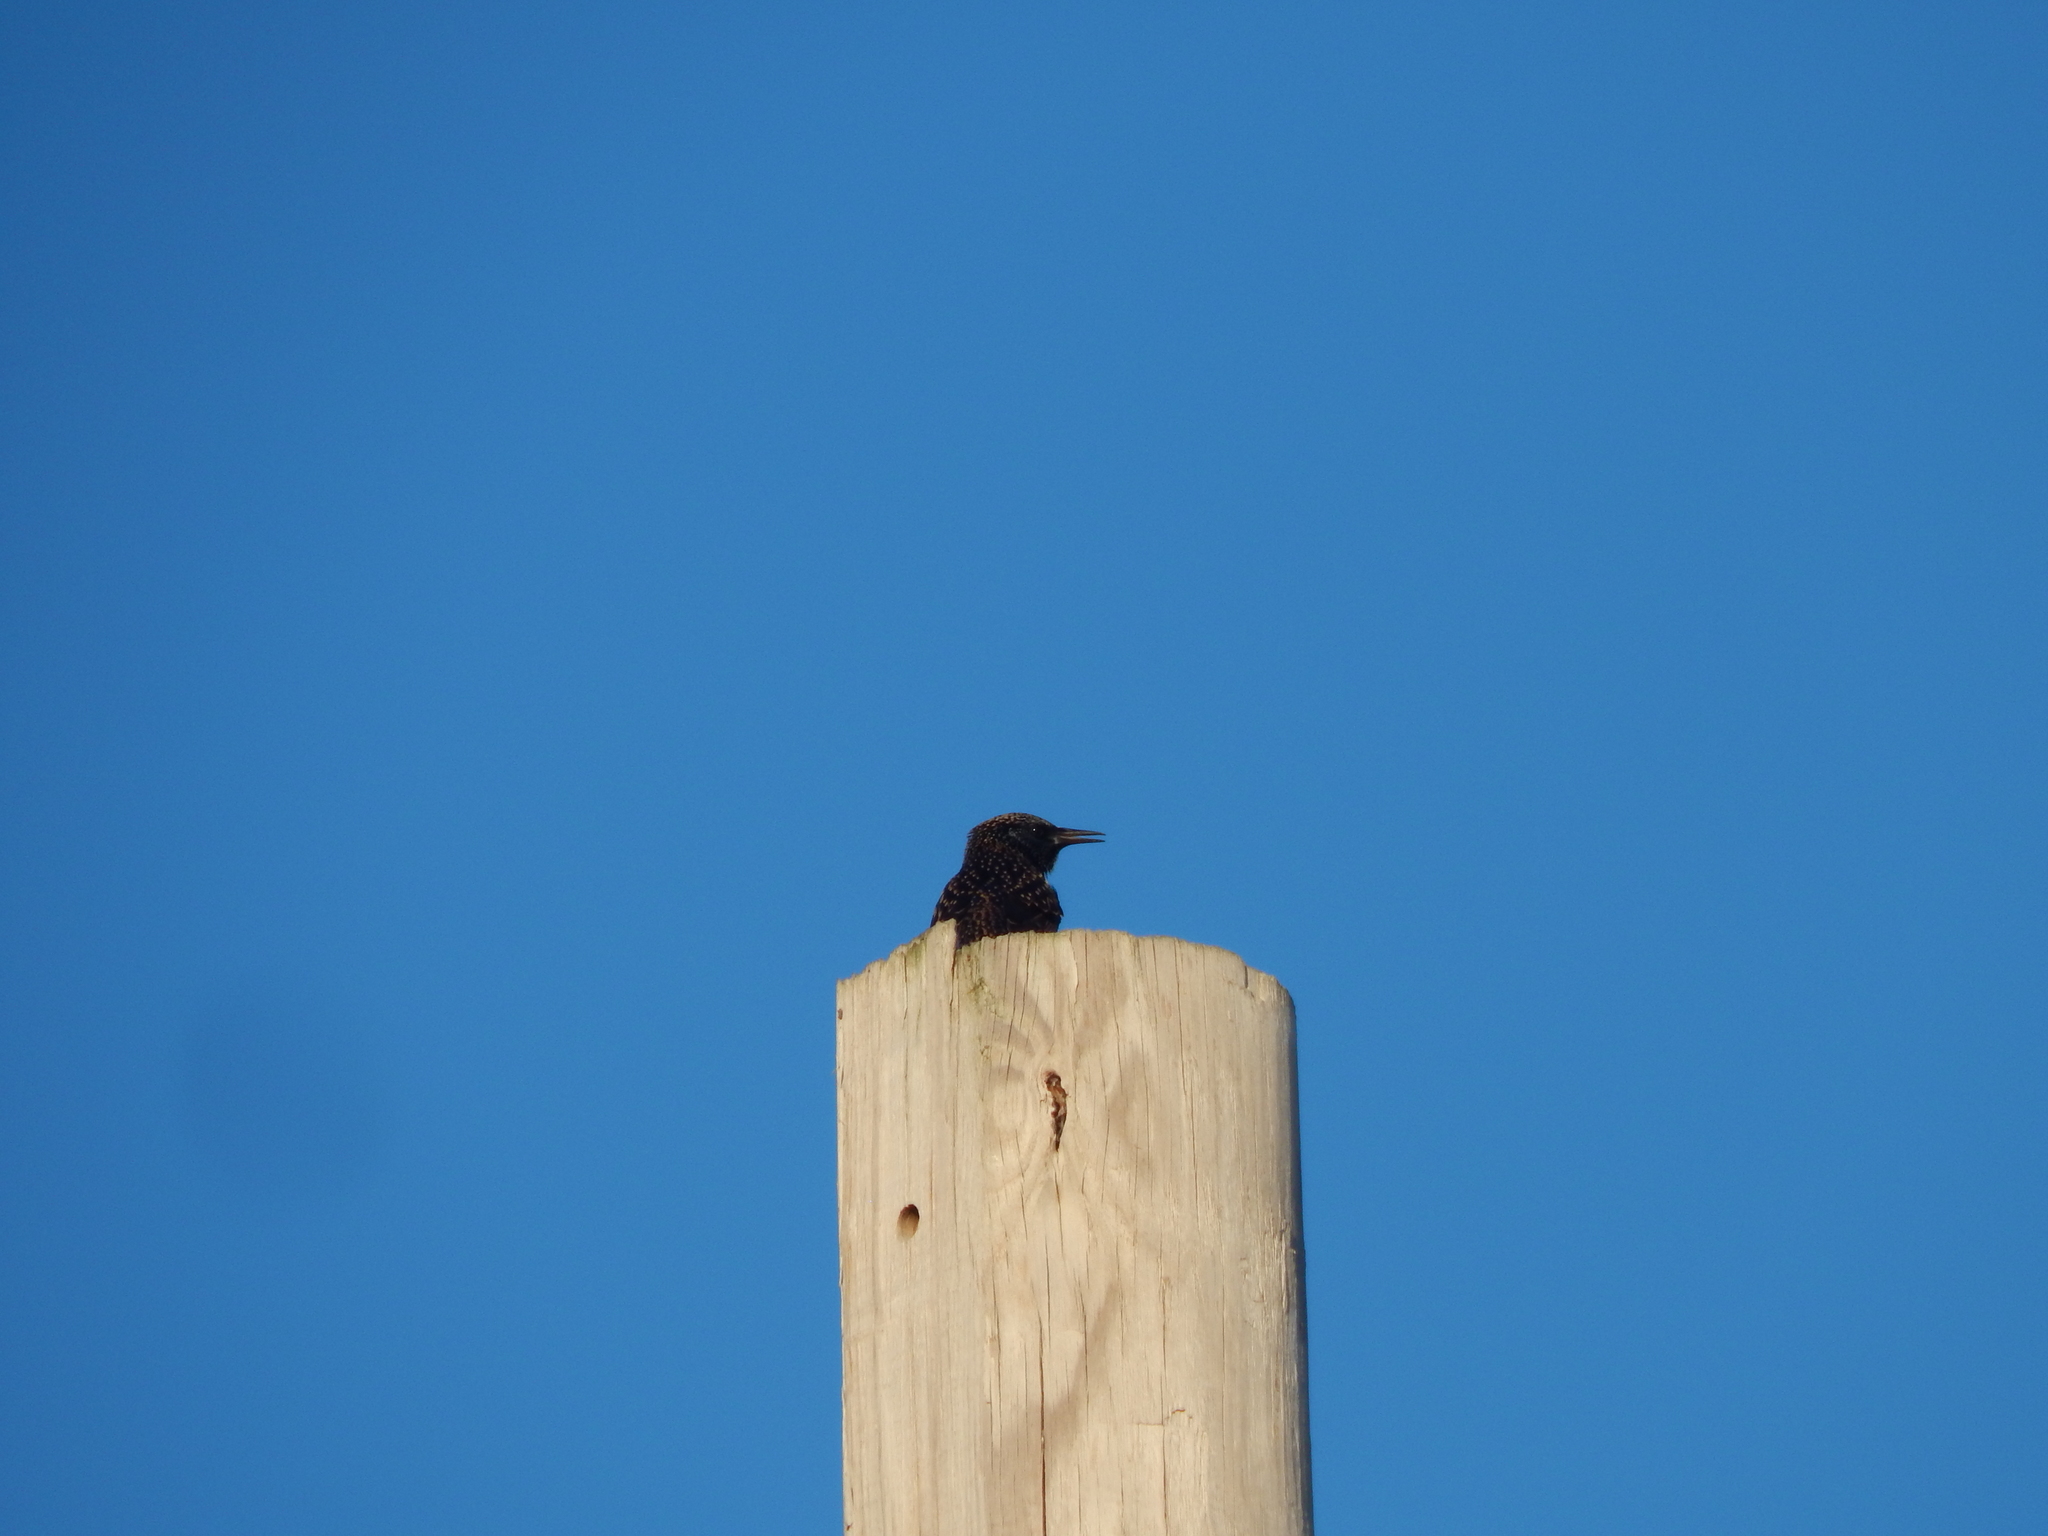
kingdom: Animalia
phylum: Chordata
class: Aves
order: Passeriformes
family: Sturnidae
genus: Sturnus
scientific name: Sturnus vulgaris
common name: Common starling
